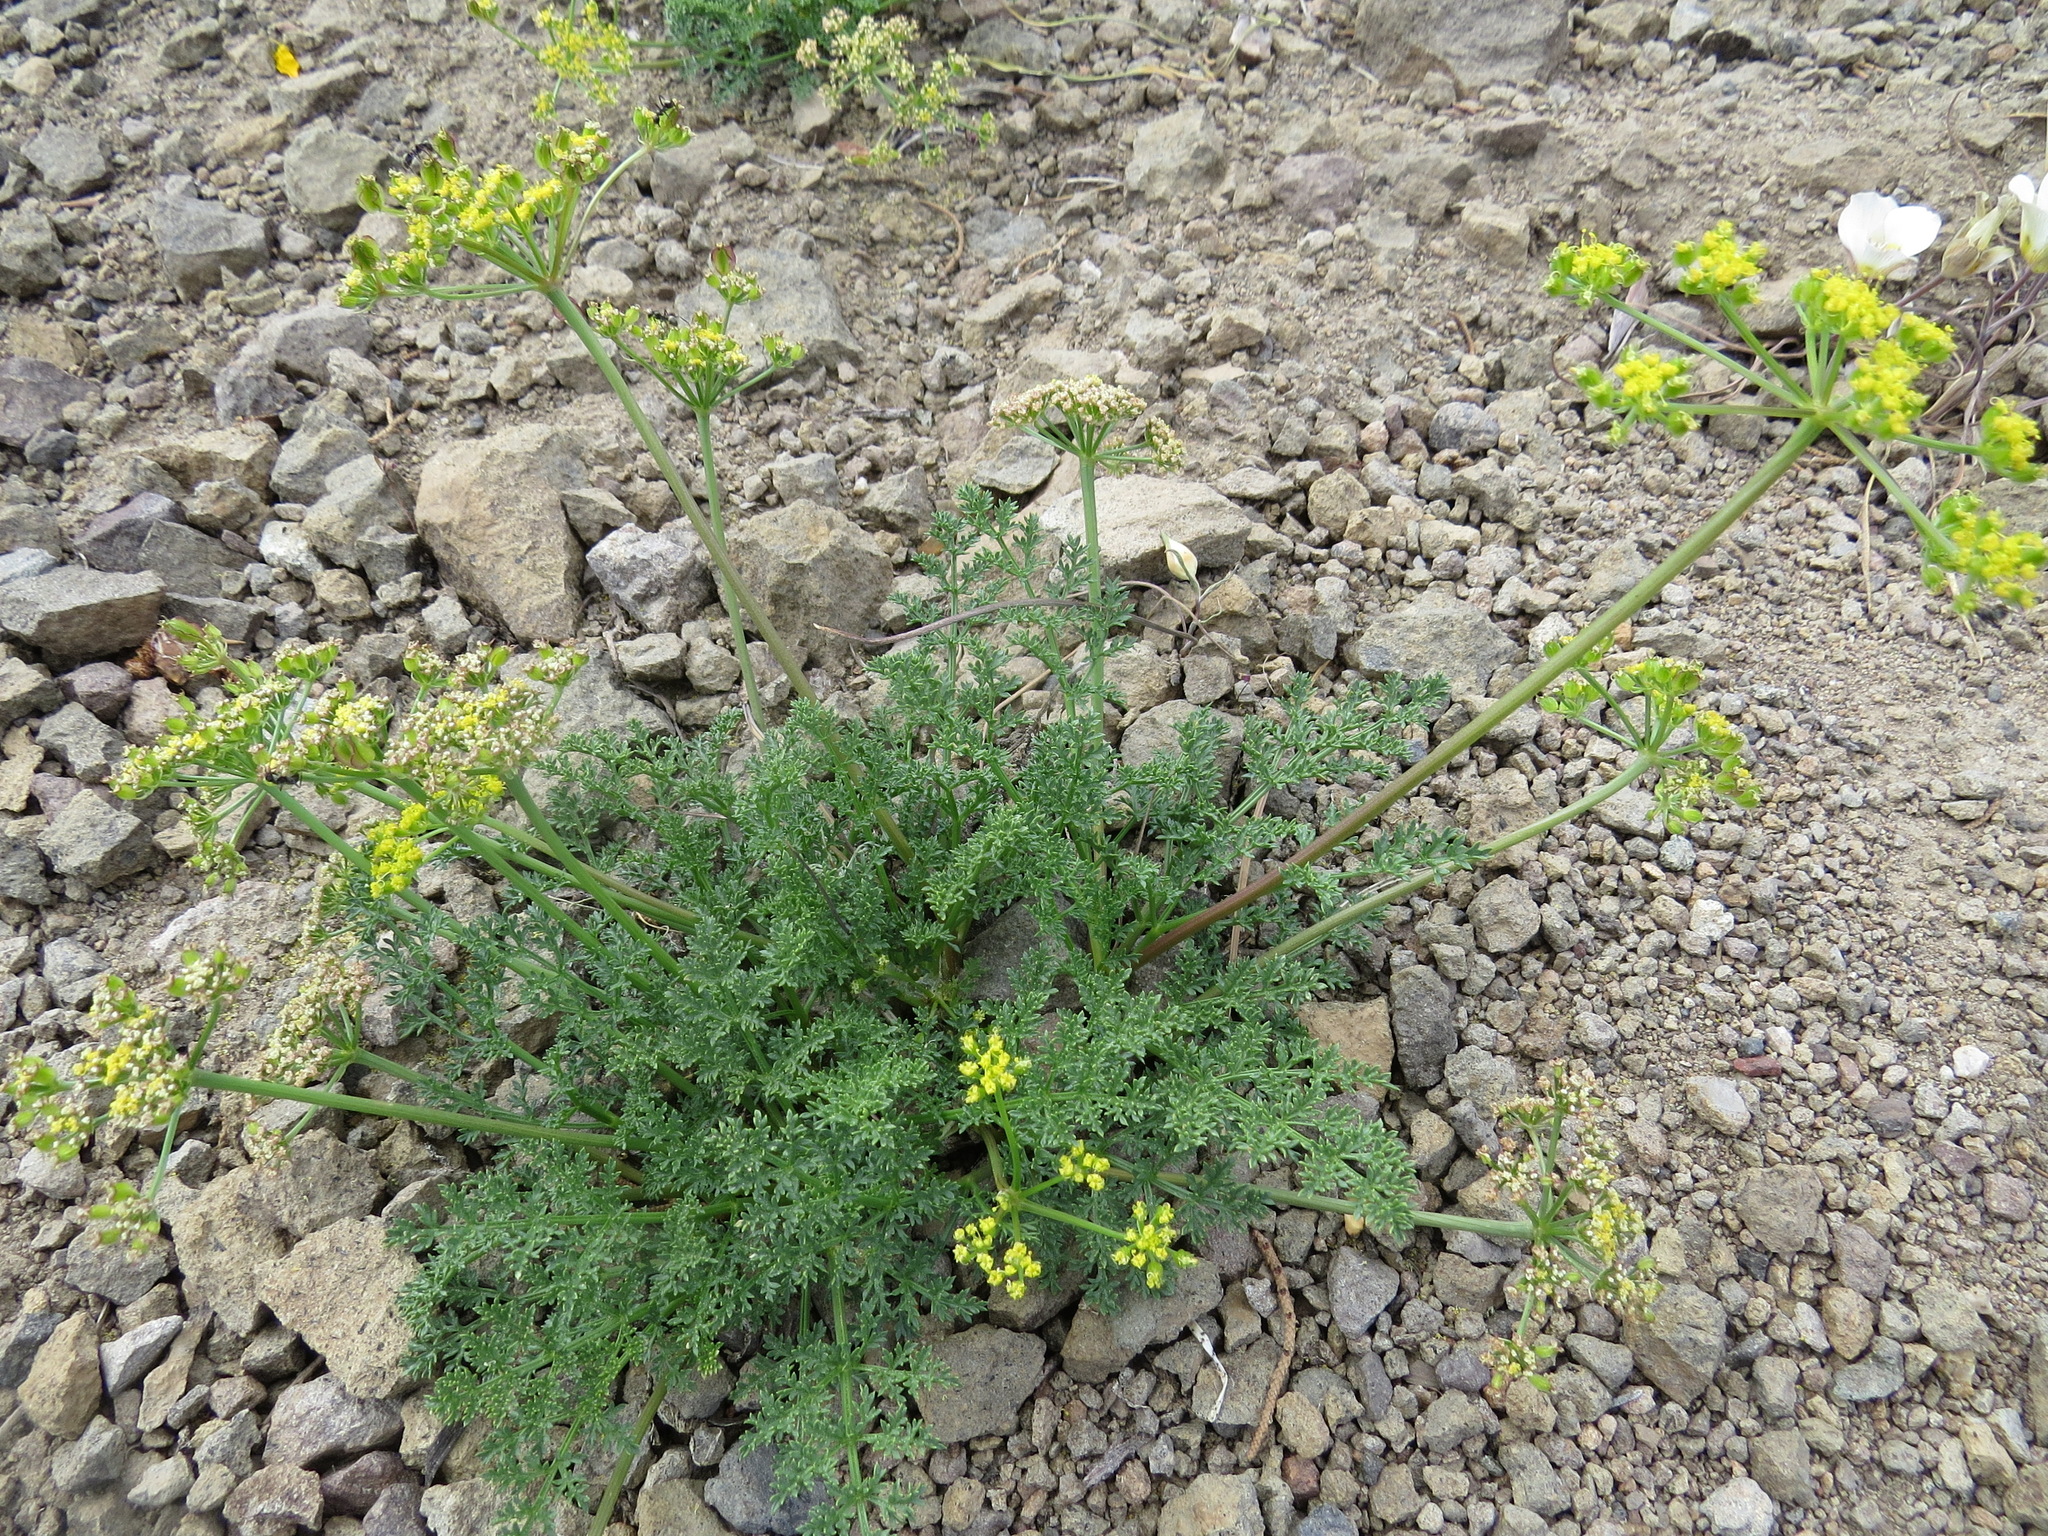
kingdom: Plantae
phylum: Tracheophyta
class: Magnoliopsida
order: Apiales
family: Apiaceae
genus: Pteryxia
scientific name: Pteryxia terebinthina
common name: Turpentine wavewing
